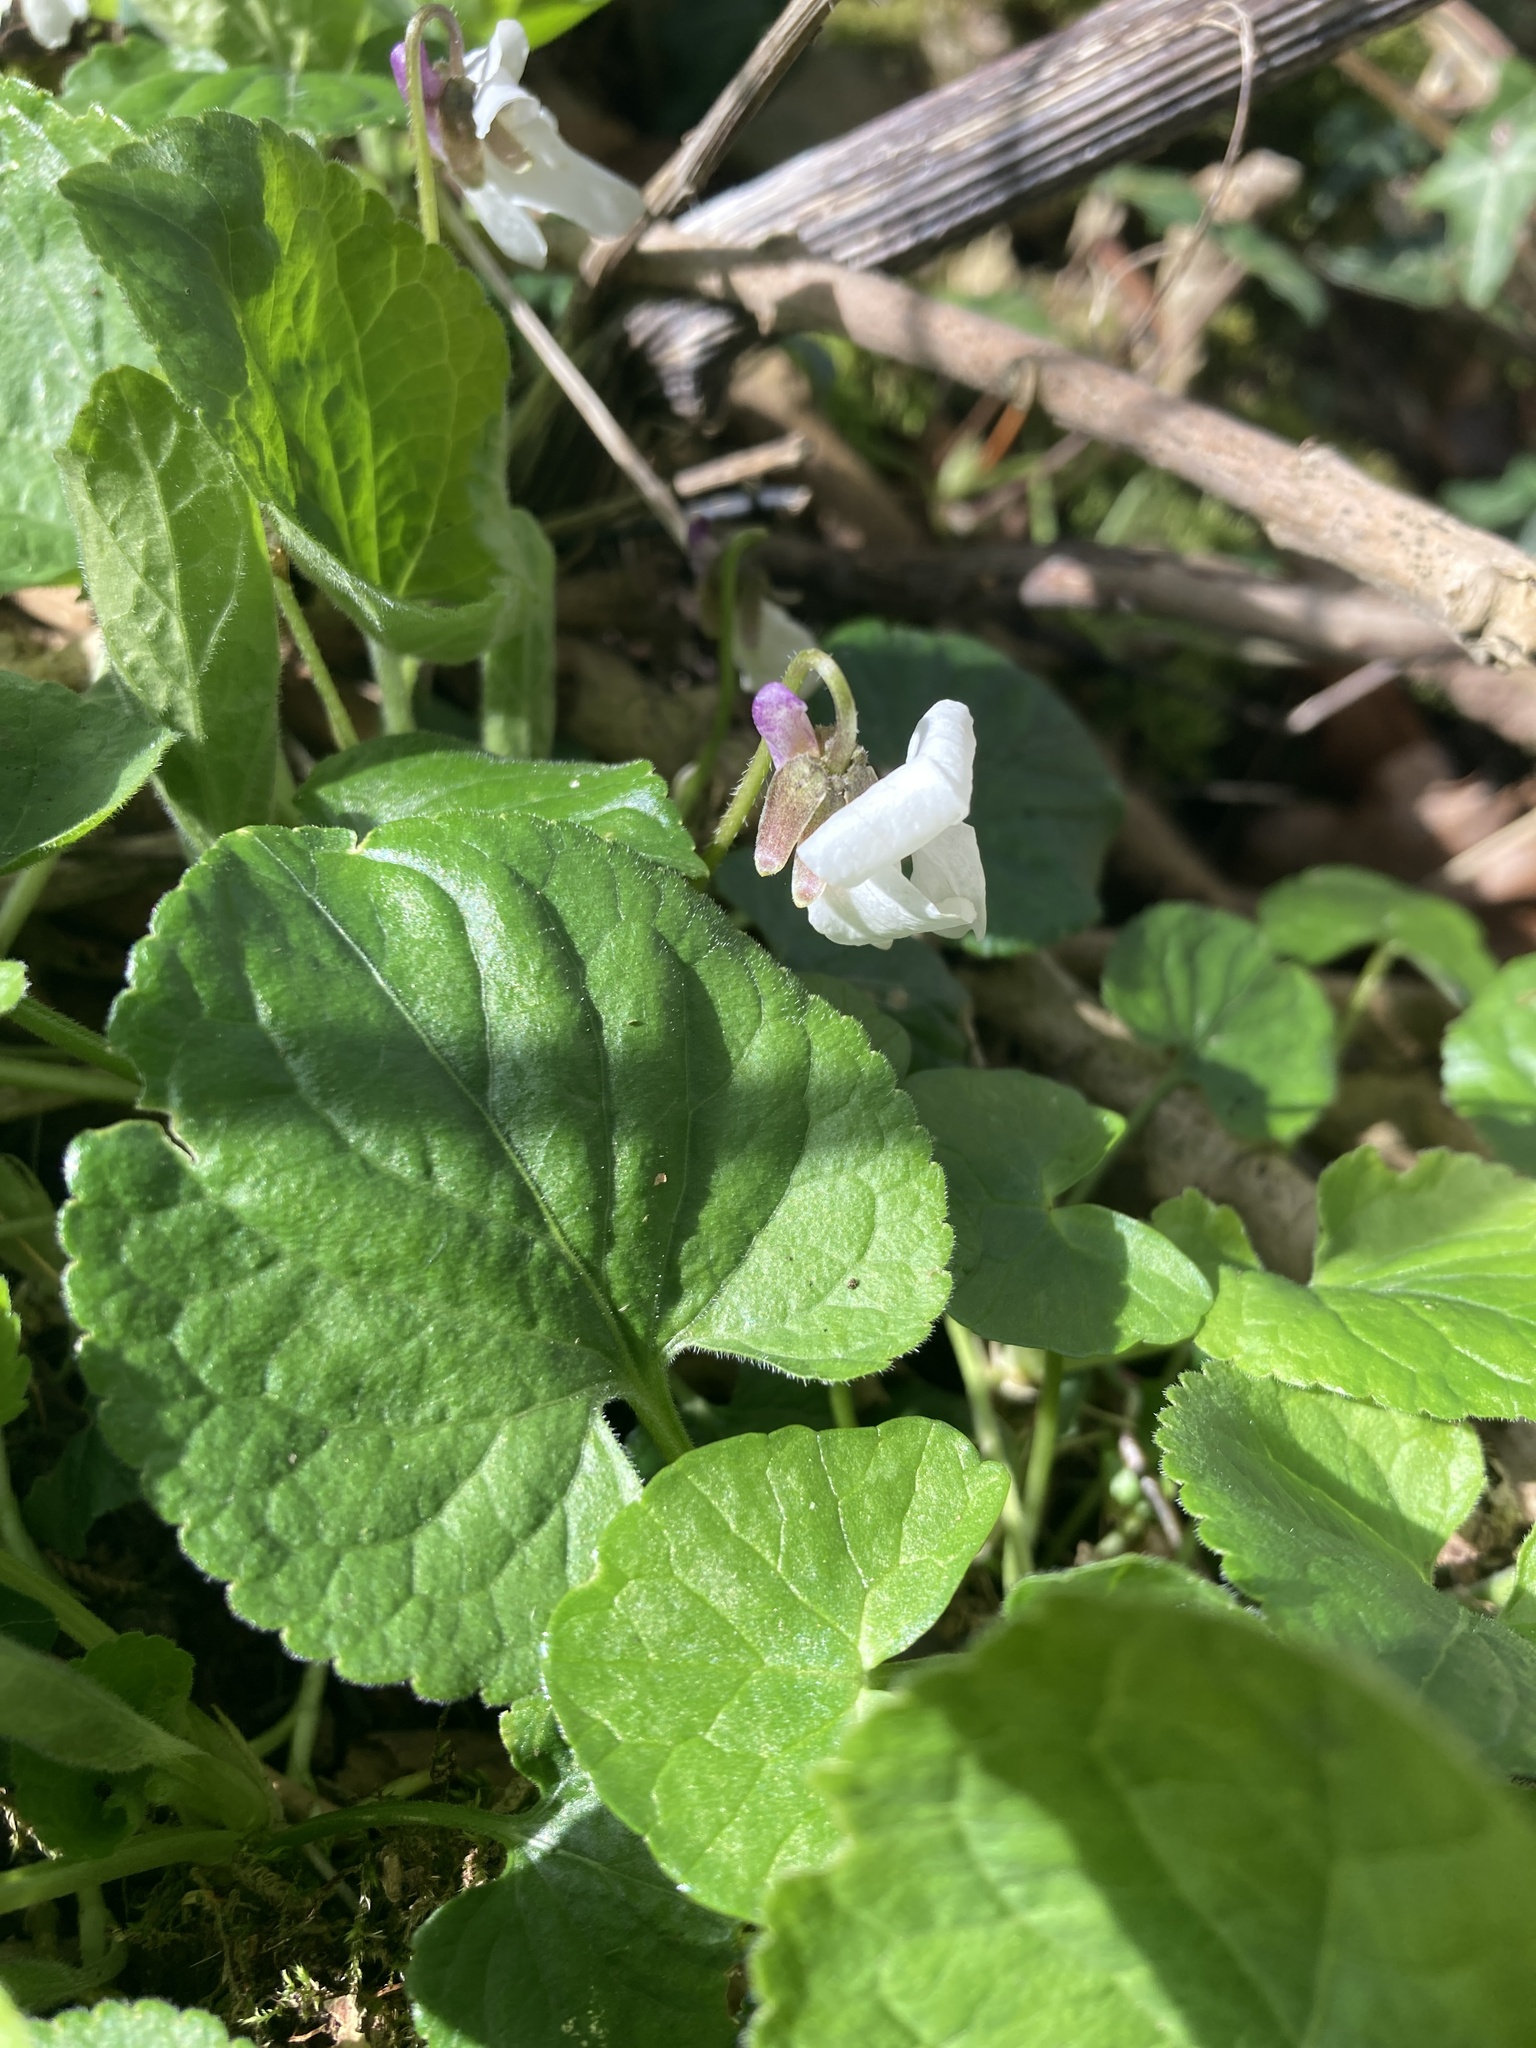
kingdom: Plantae
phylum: Tracheophyta
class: Magnoliopsida
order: Malpighiales
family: Violaceae
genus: Viola
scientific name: Viola odorata
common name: Sweet violet
